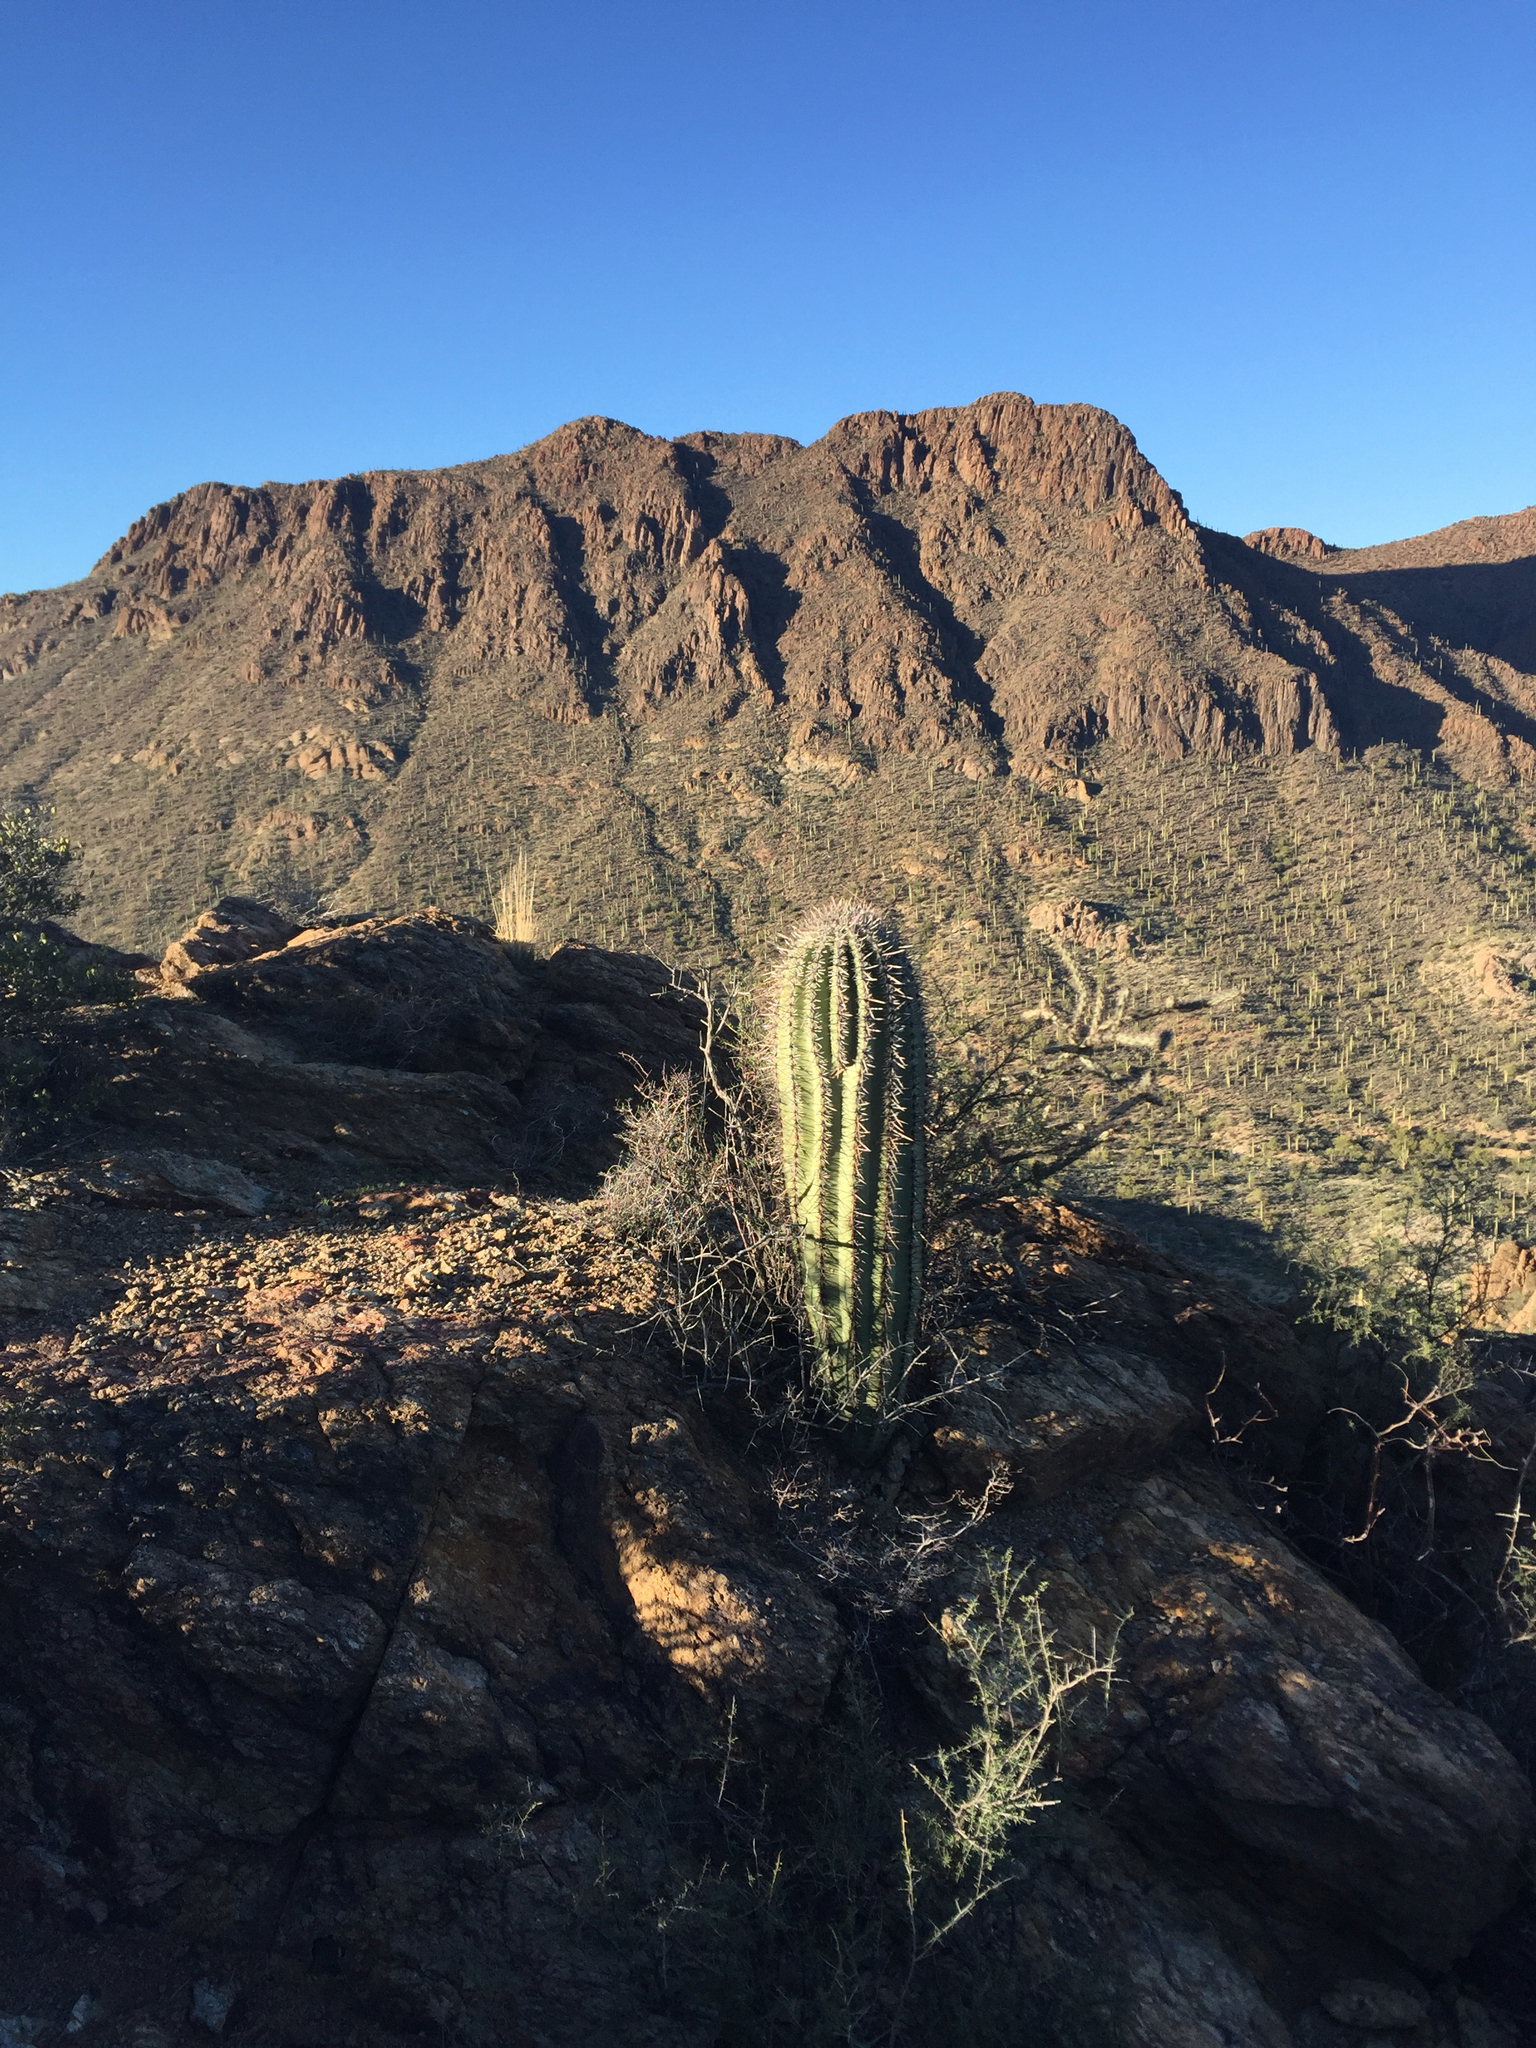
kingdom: Plantae
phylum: Tracheophyta
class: Magnoliopsida
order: Caryophyllales
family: Cactaceae
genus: Carnegiea
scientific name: Carnegiea gigantea
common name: Saguaro
